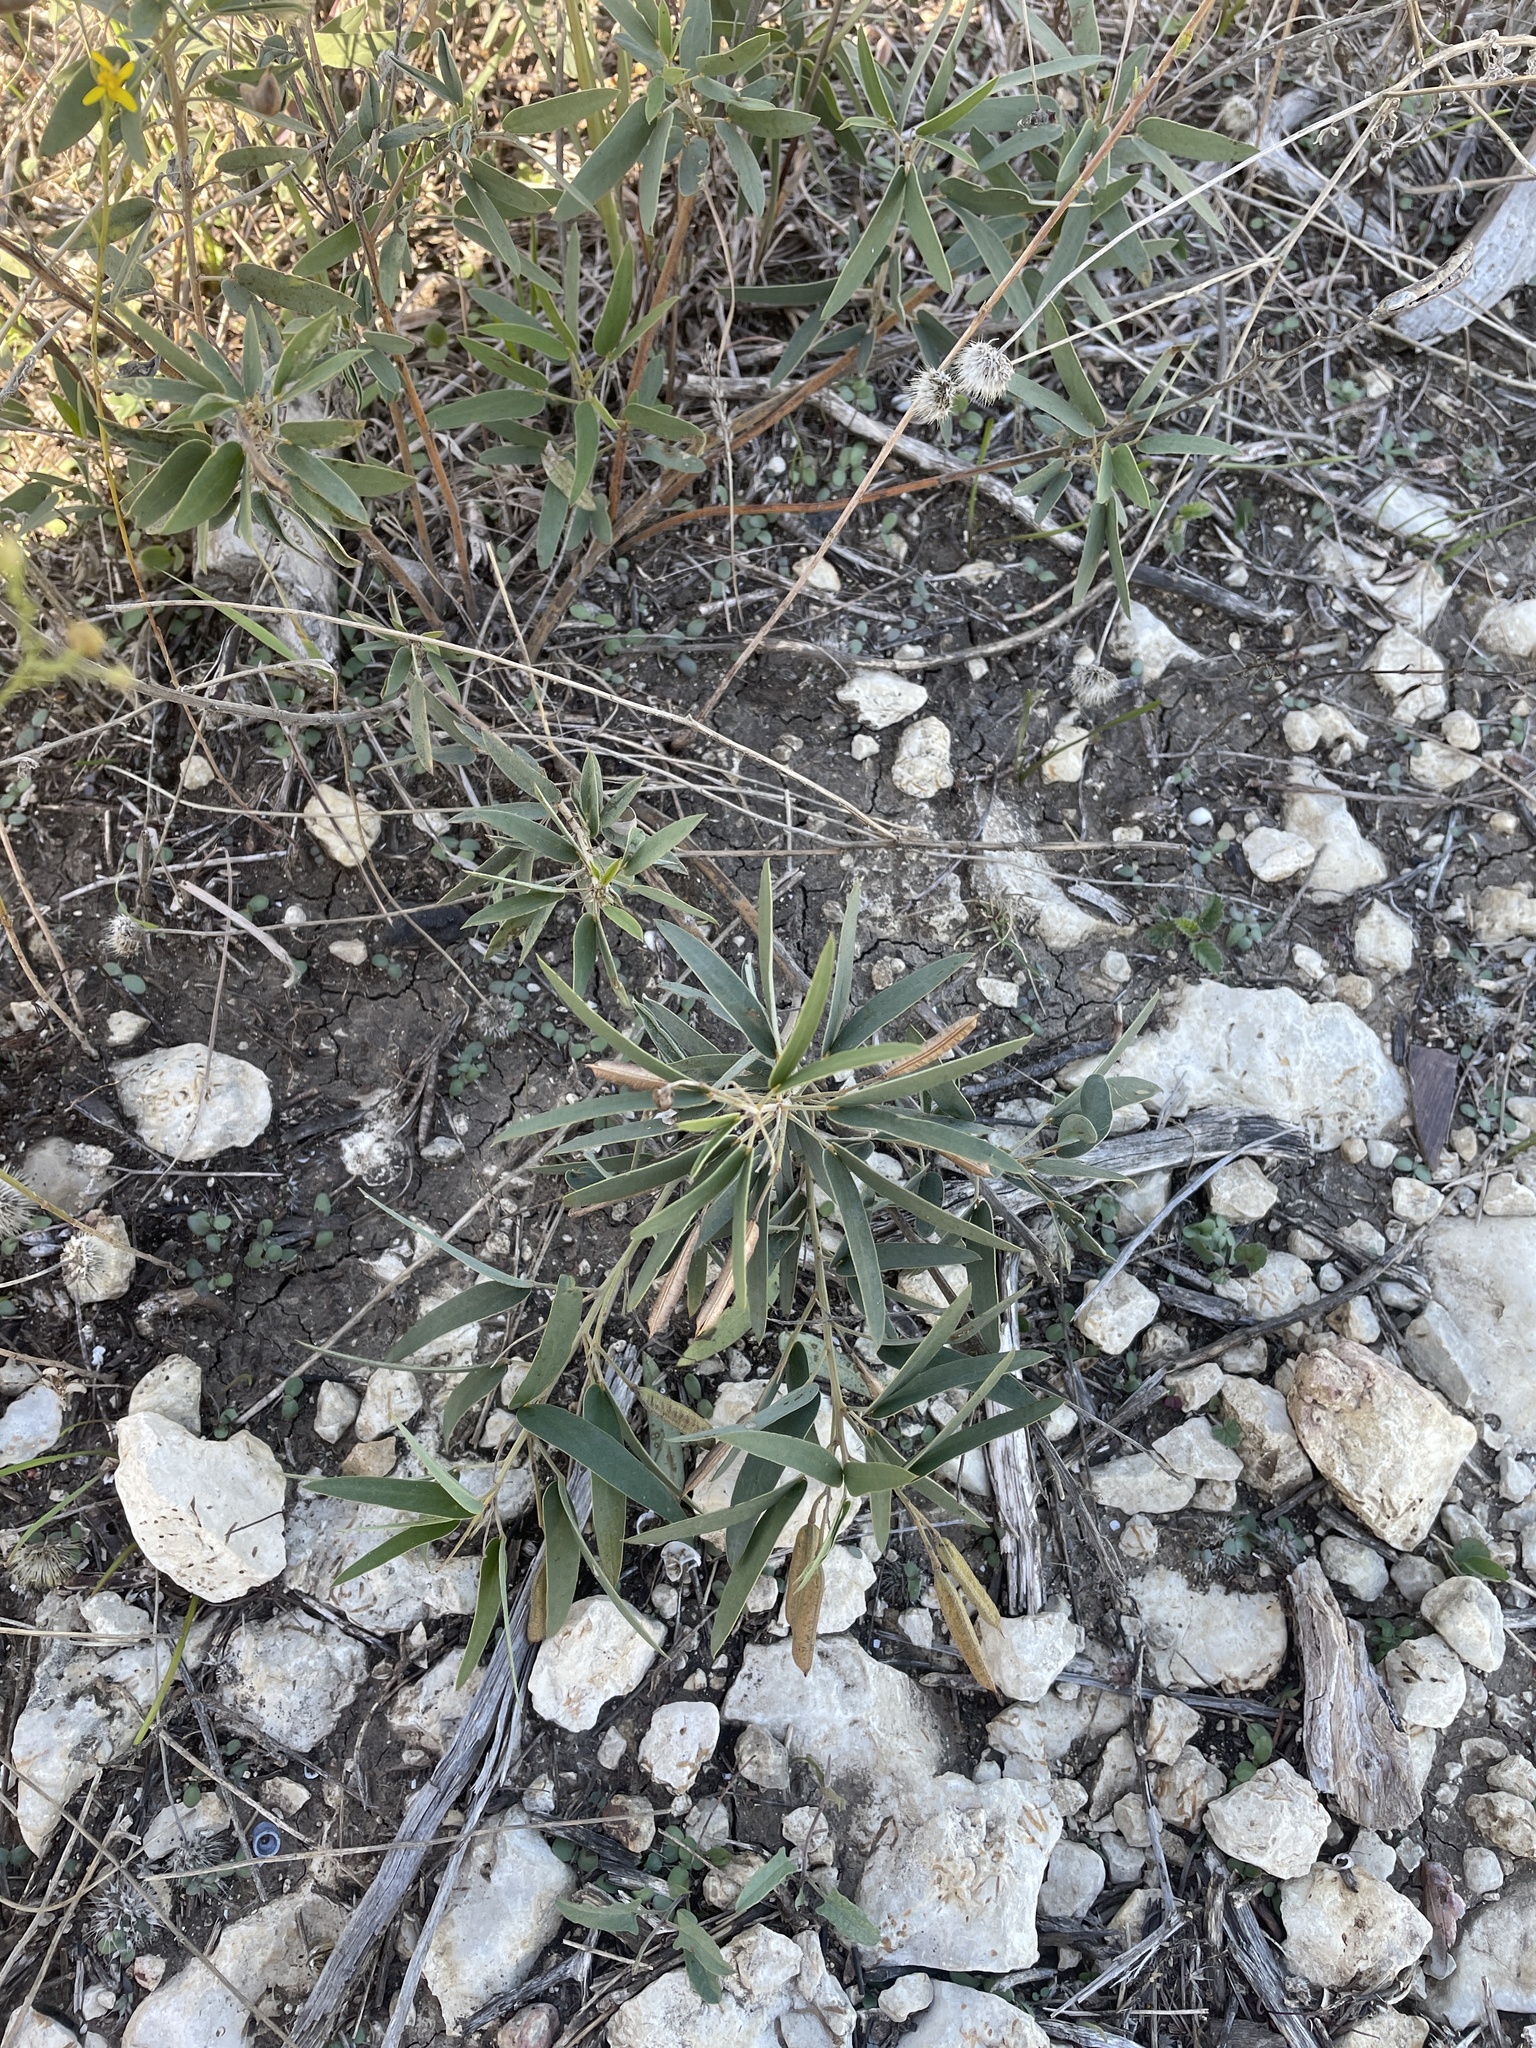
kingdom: Plantae
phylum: Tracheophyta
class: Magnoliopsida
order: Fabales
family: Fabaceae
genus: Senna
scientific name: Senna roemeriana
